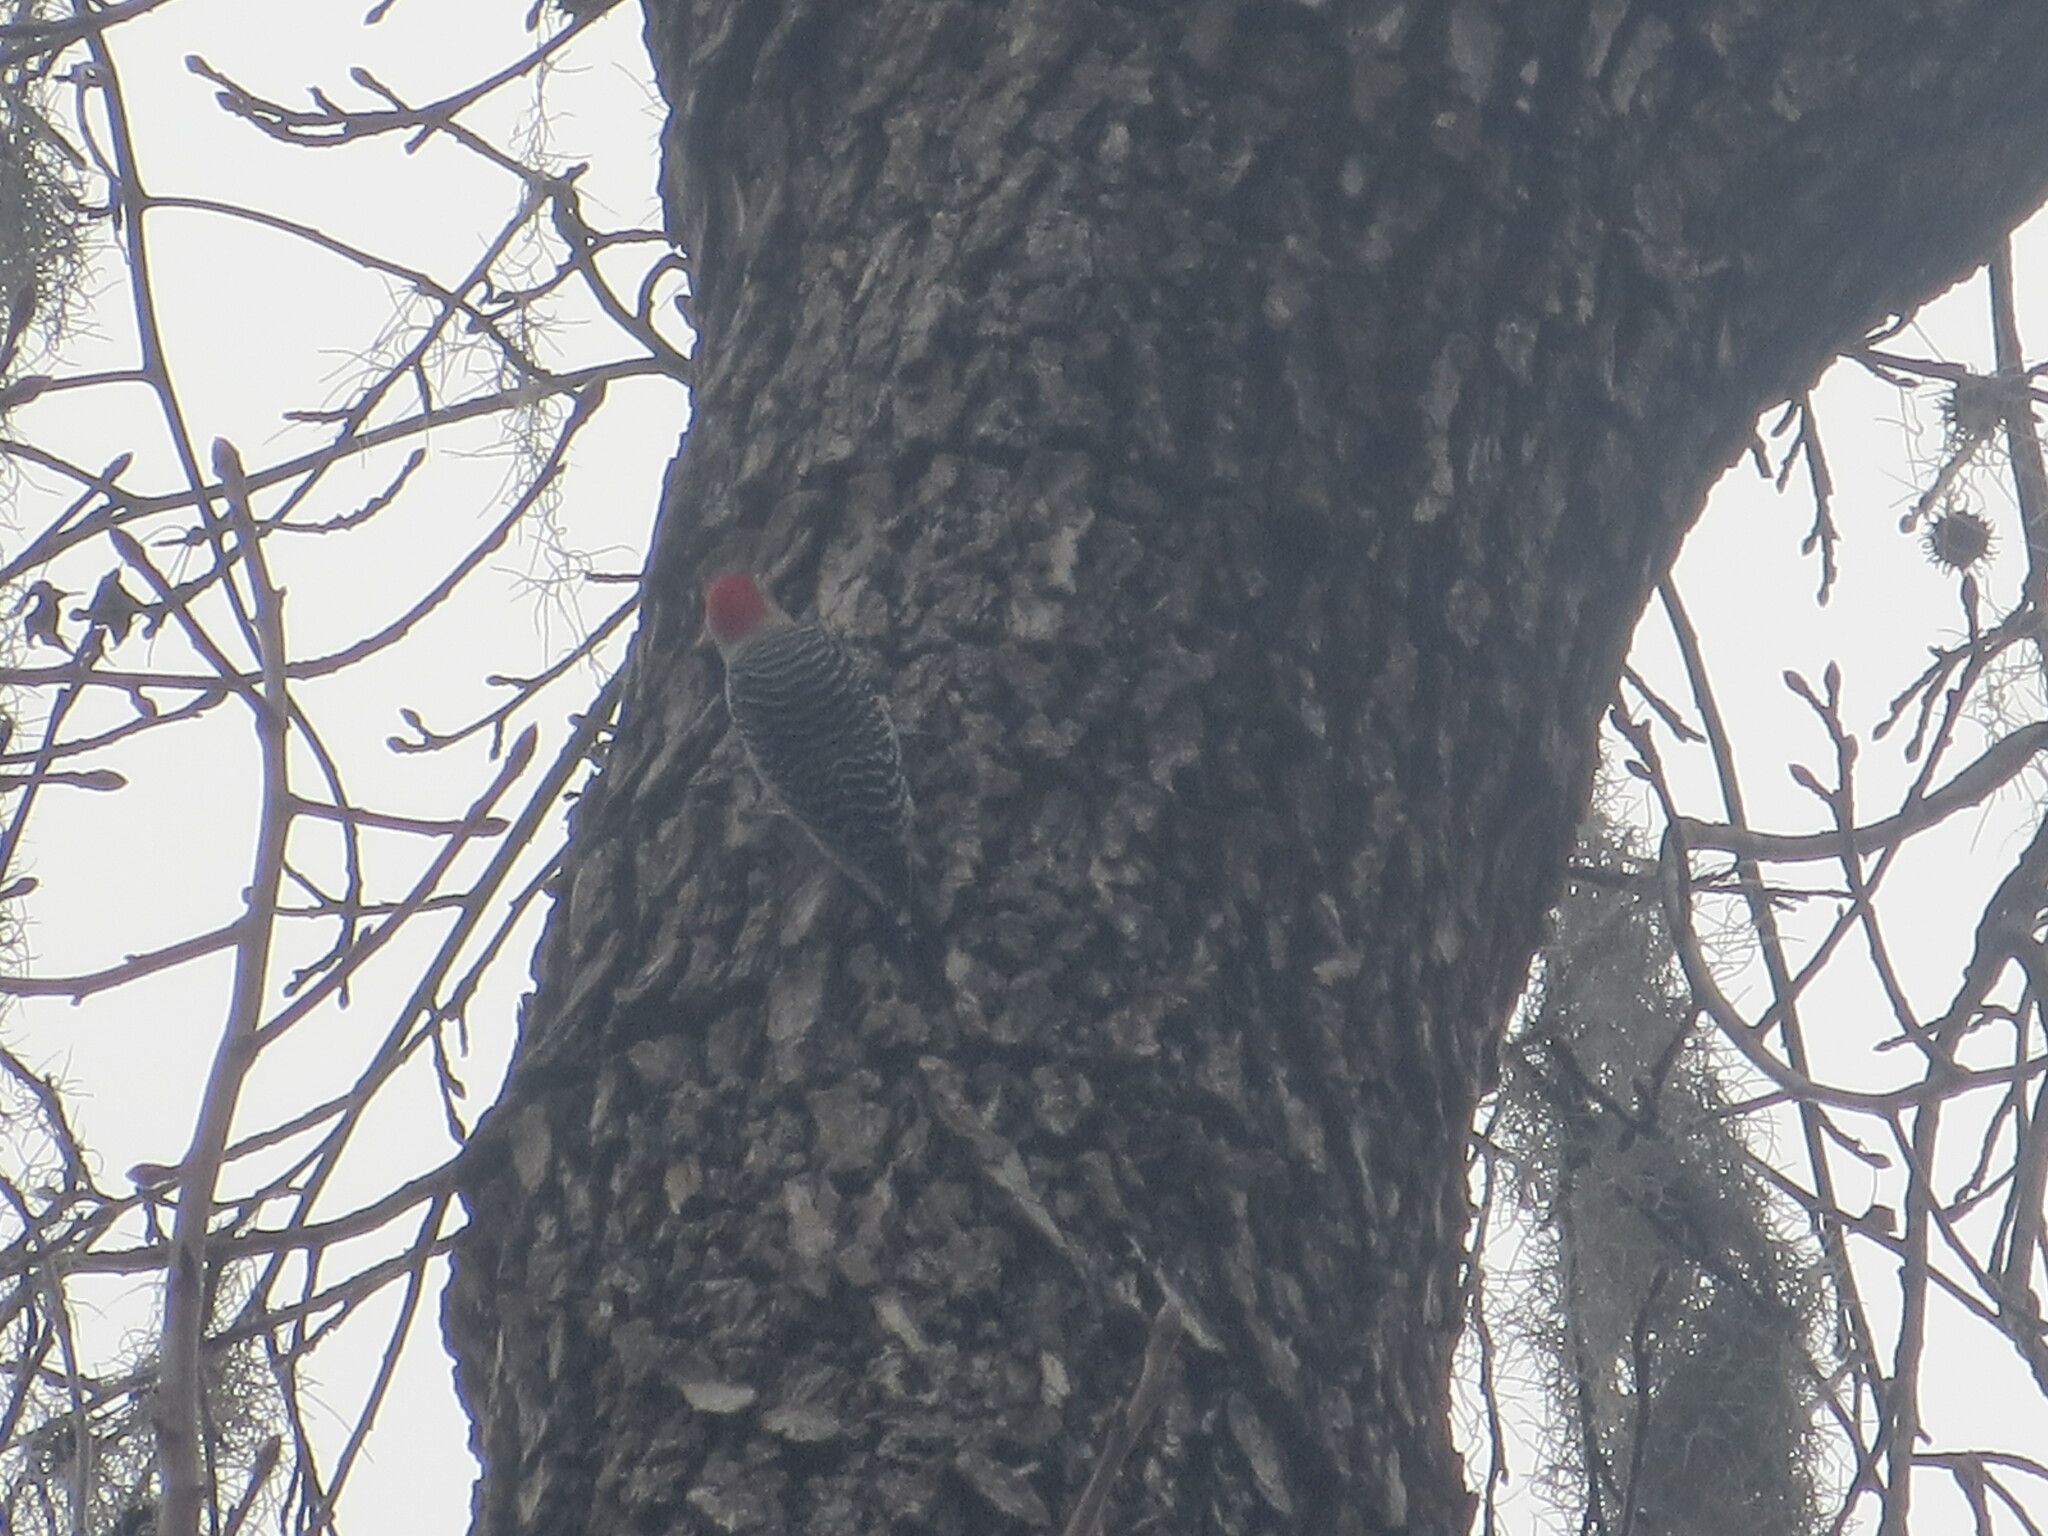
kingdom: Animalia
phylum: Chordata
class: Aves
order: Piciformes
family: Picidae
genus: Melanerpes
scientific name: Melanerpes carolinus
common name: Red-bellied woodpecker
